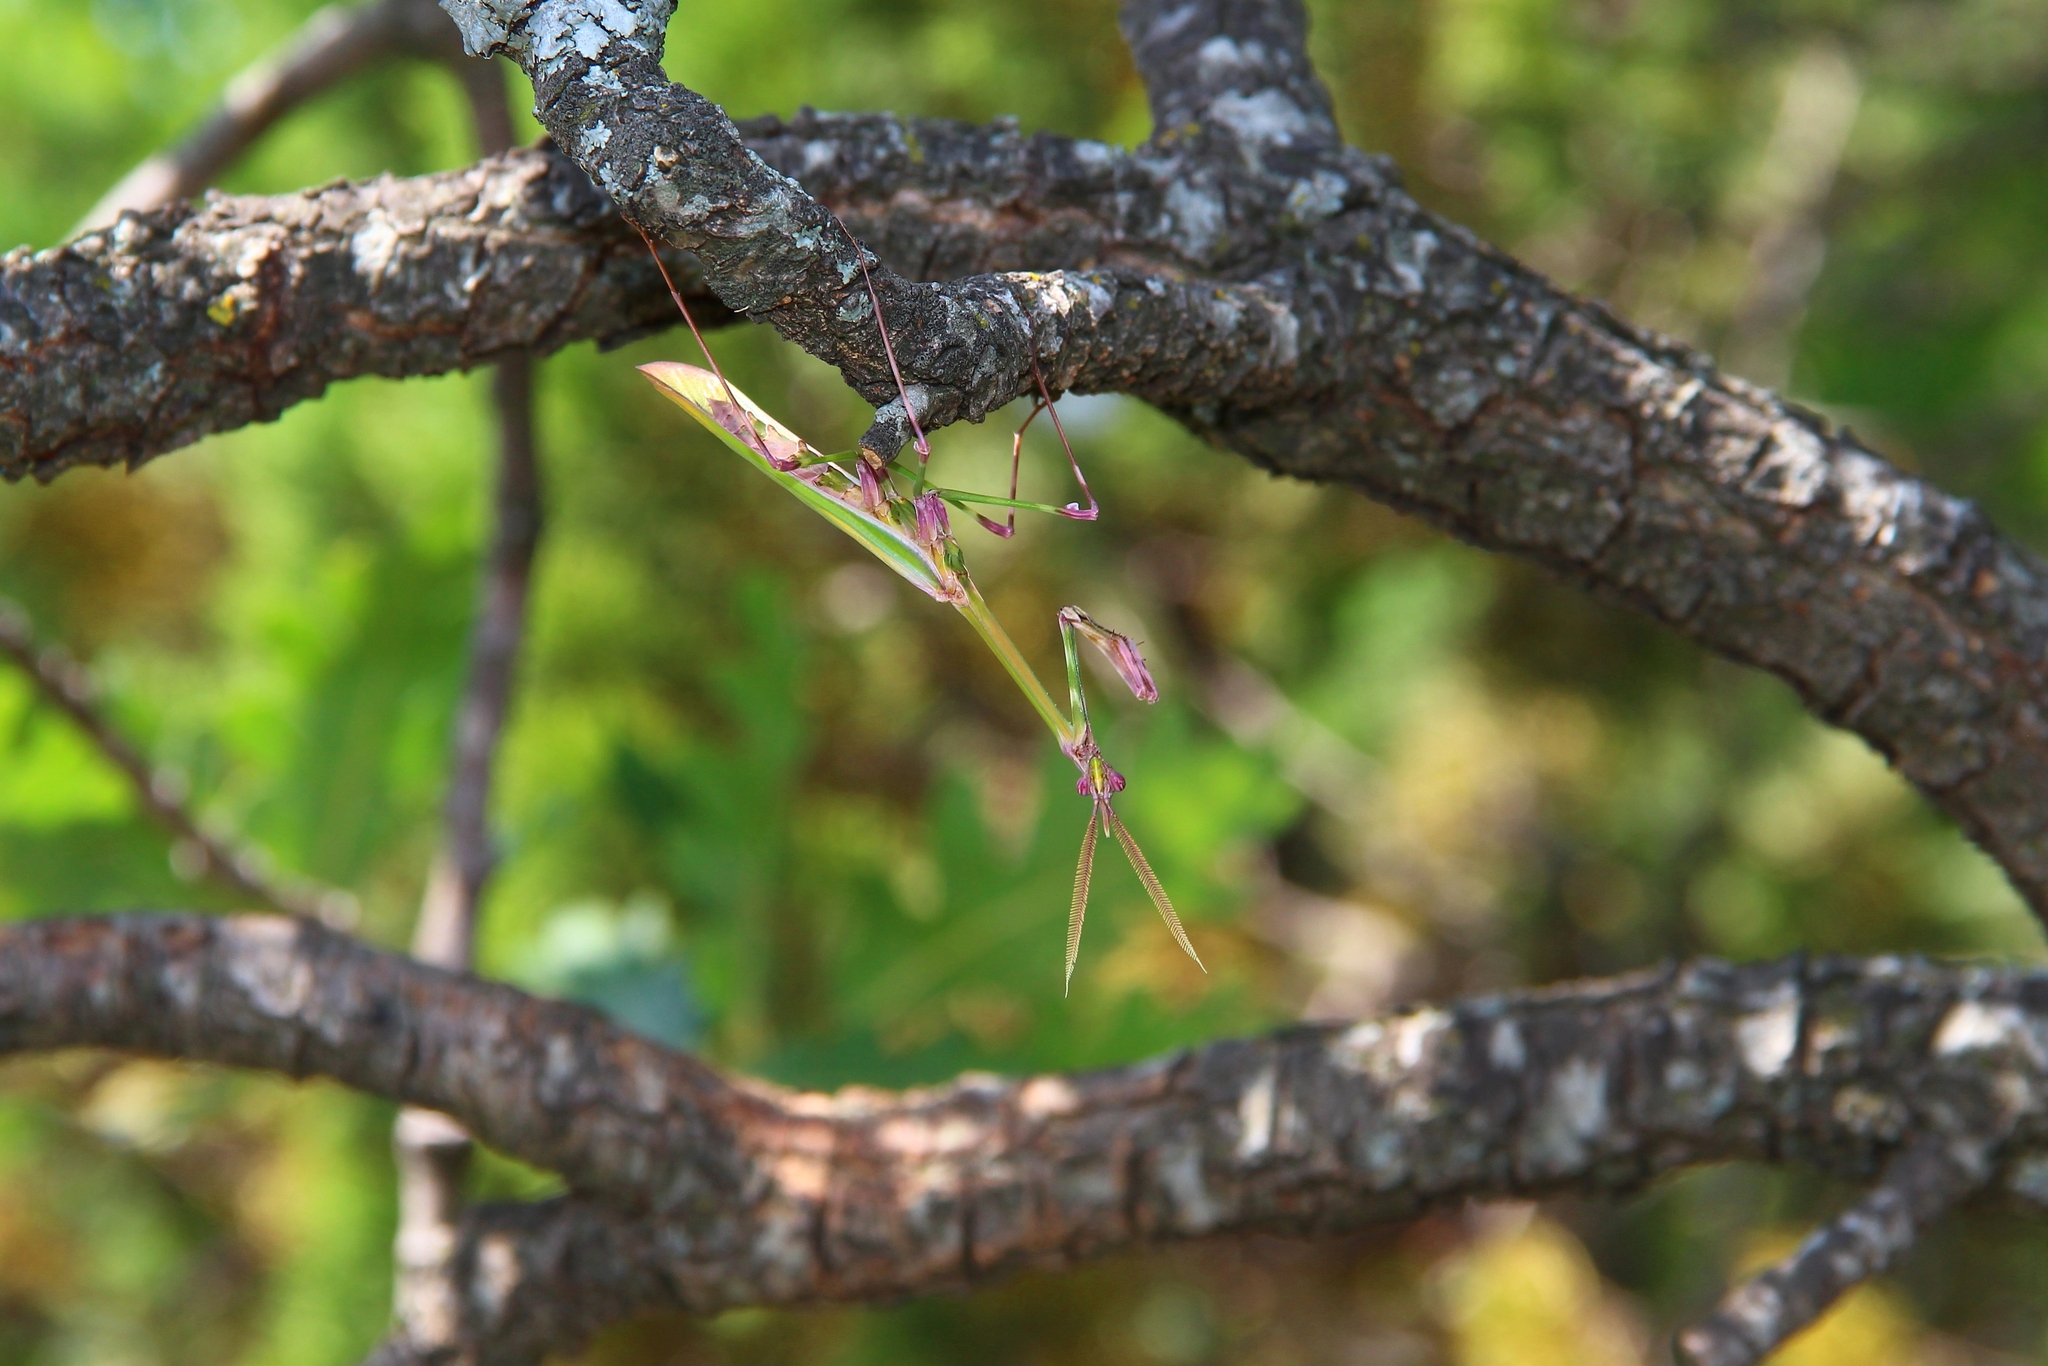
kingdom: Animalia
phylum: Arthropoda
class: Insecta
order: Mantodea
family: Empusidae
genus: Empusa
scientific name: Empusa pennicornis
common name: Conehead mantis
